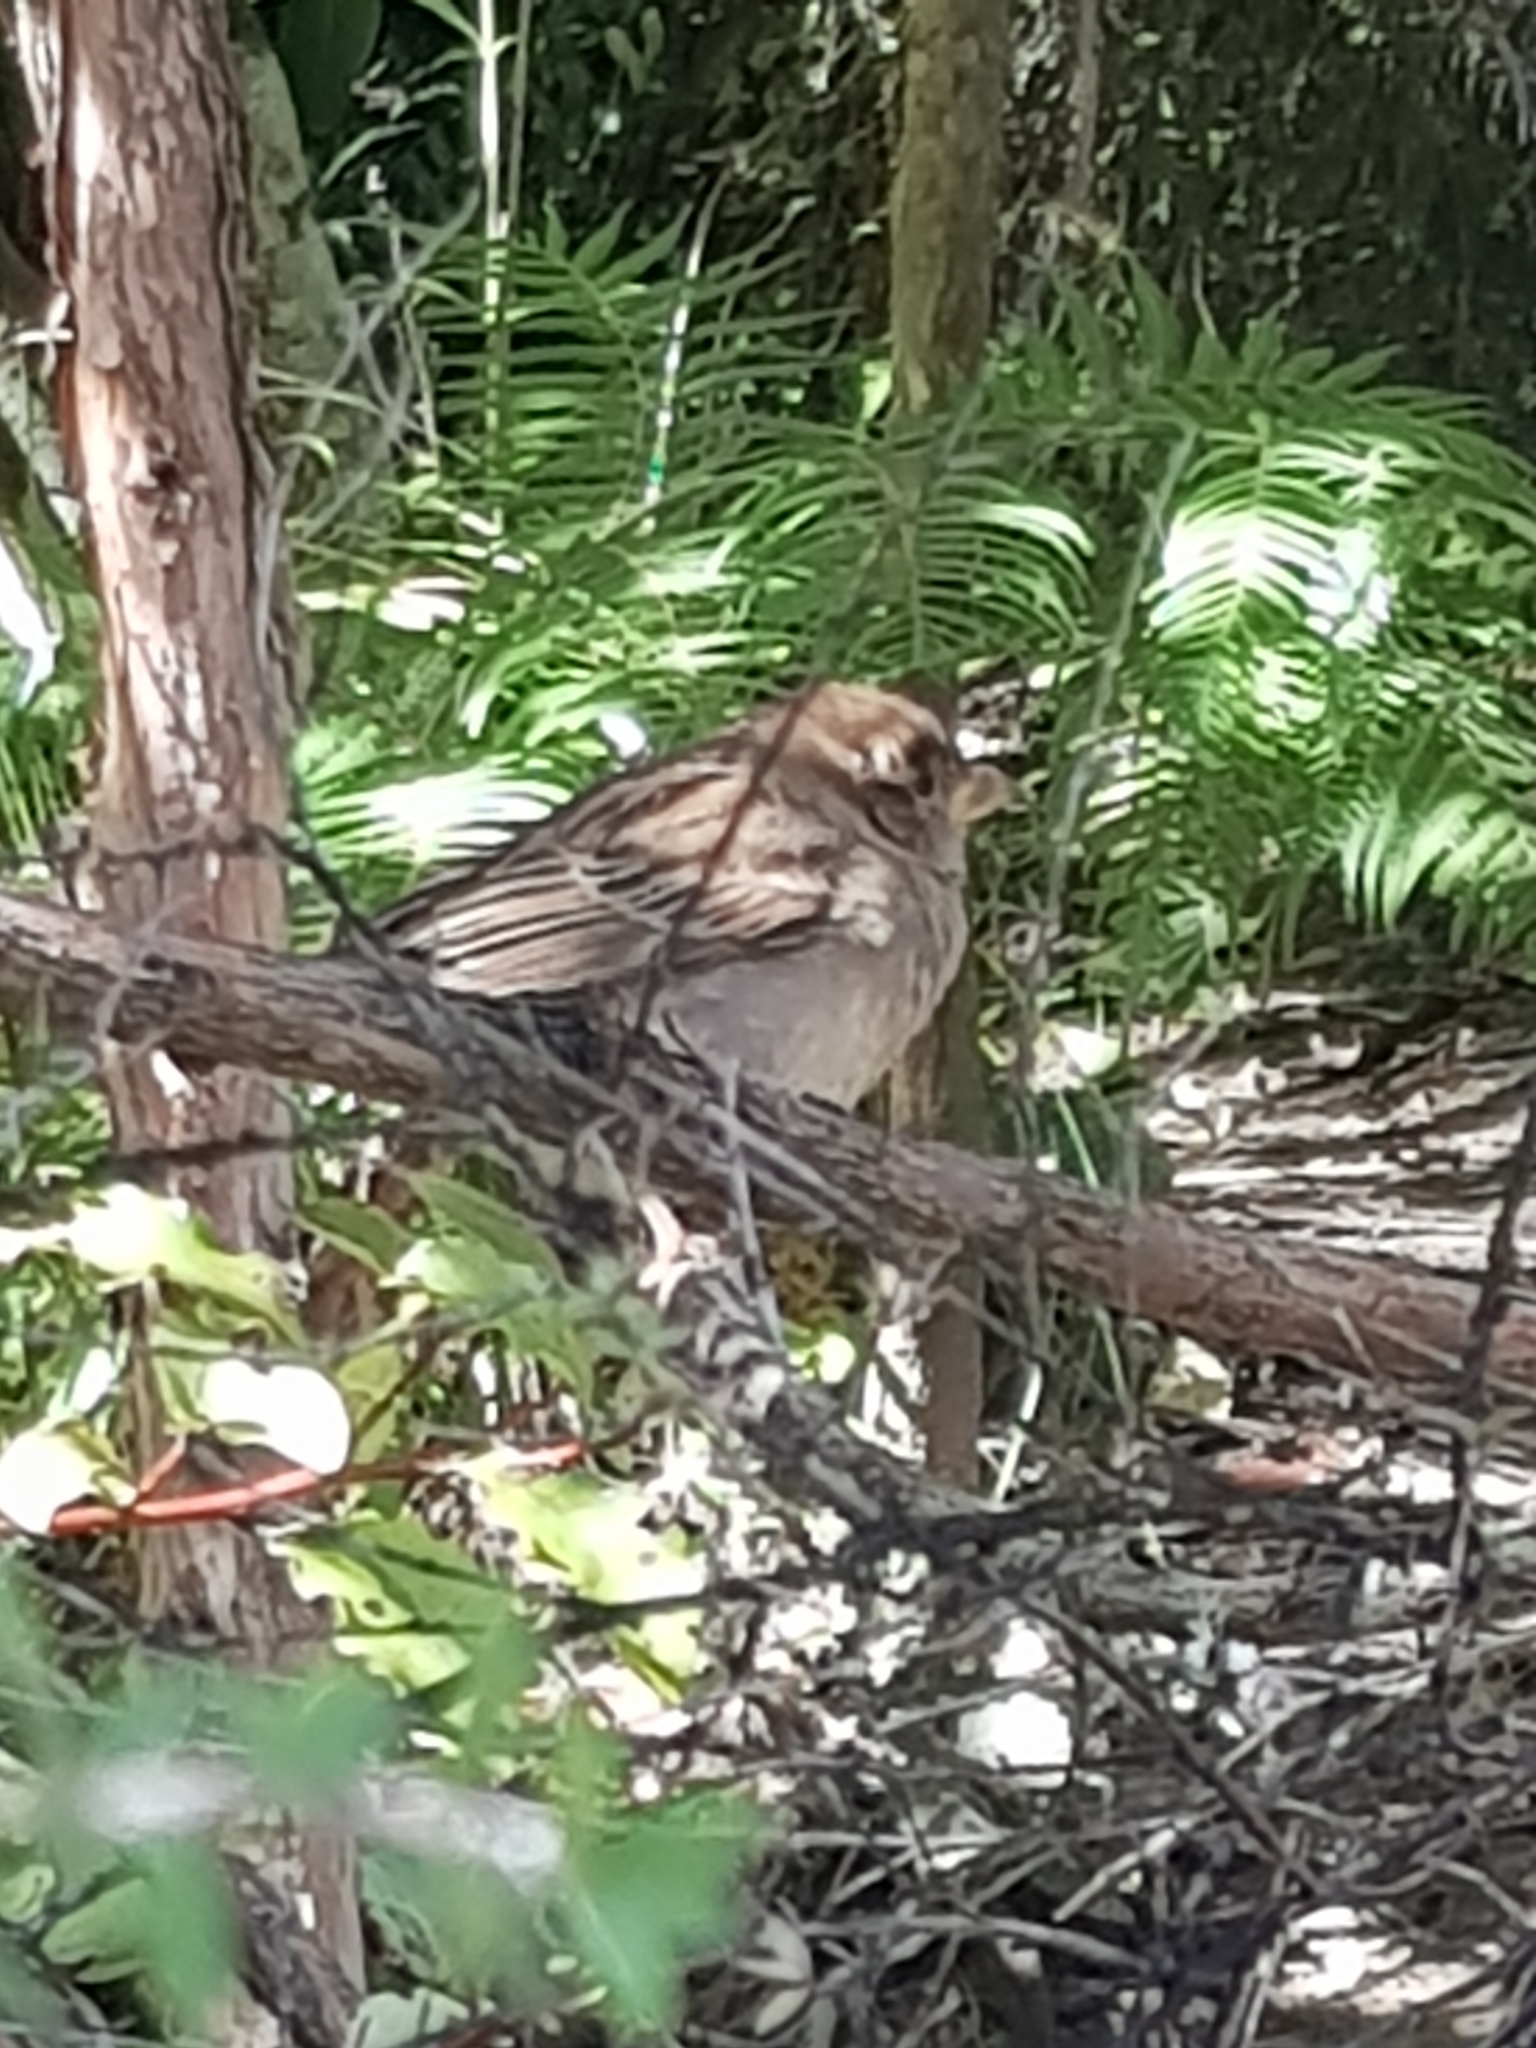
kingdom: Animalia
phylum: Chordata
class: Aves
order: Passeriformes
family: Passeridae
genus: Passer
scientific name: Passer domesticus
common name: House sparrow
